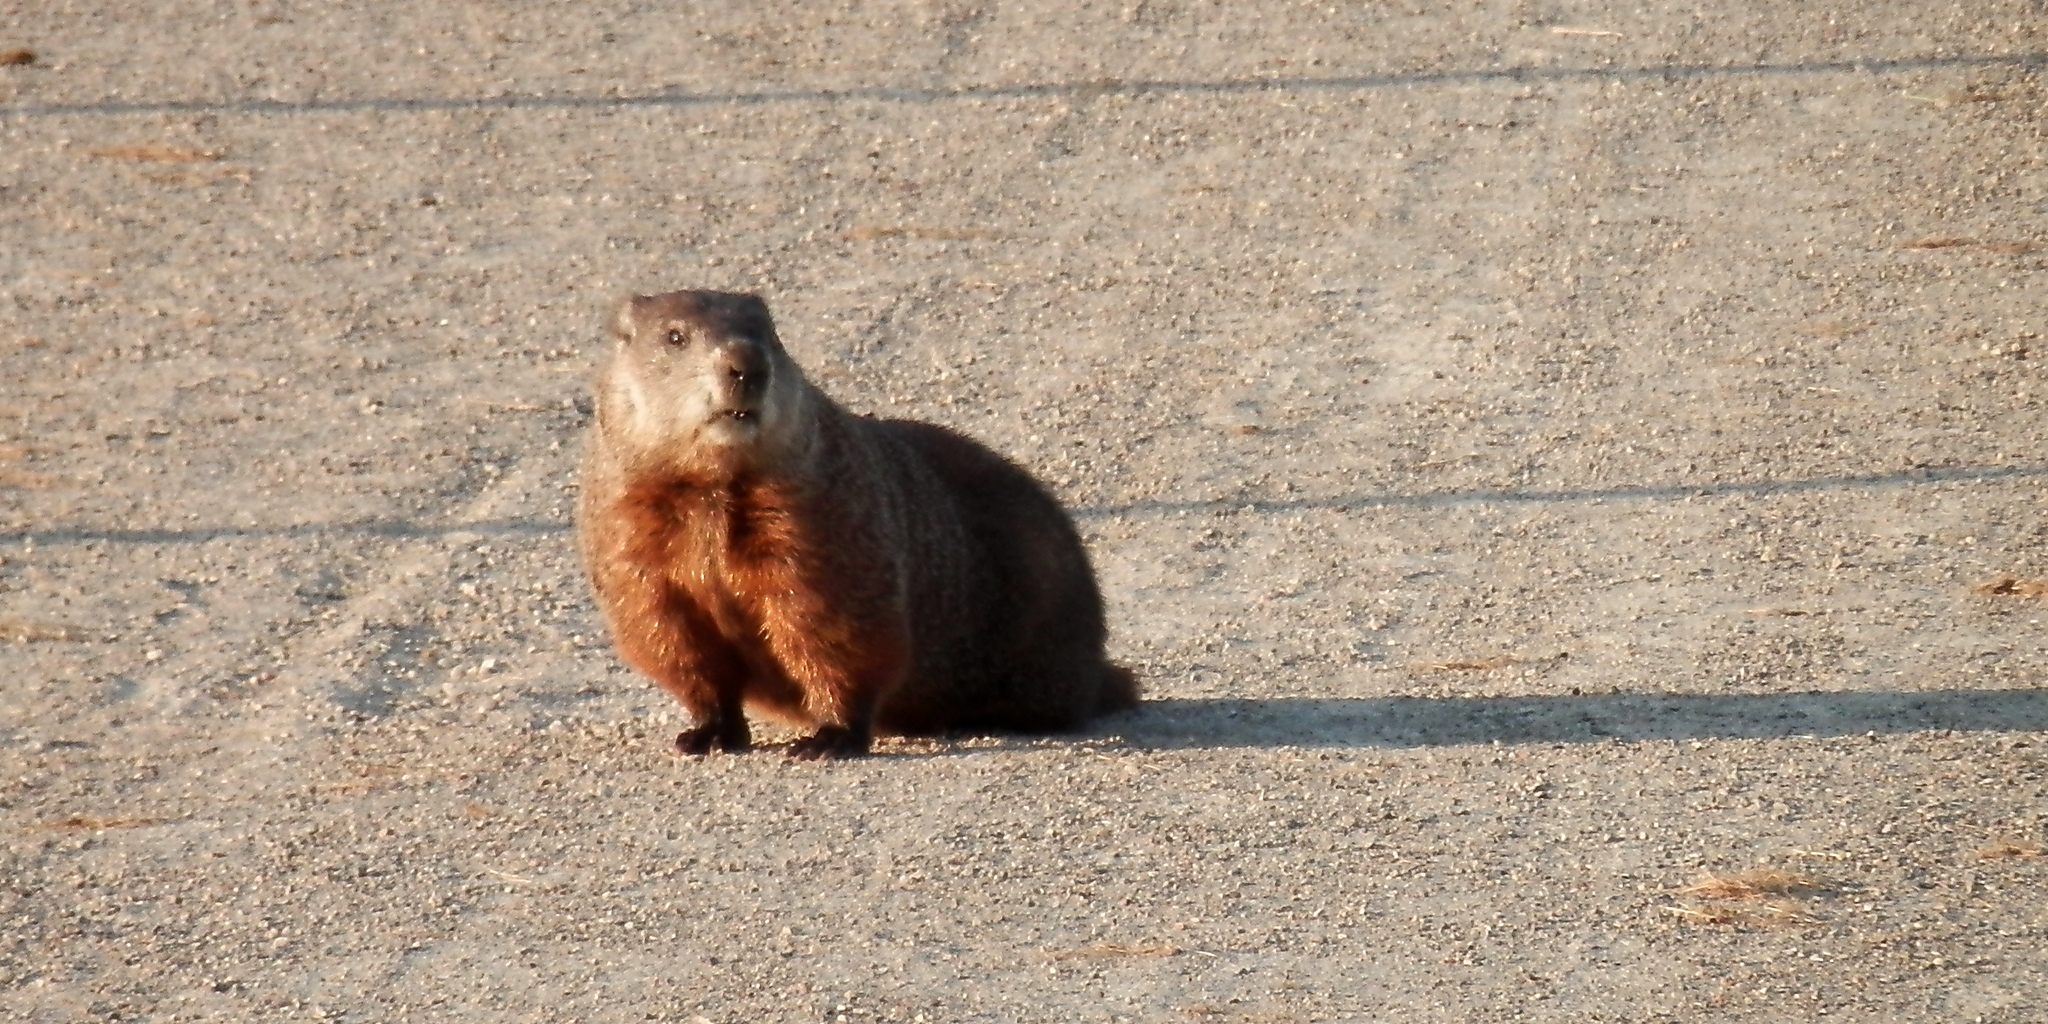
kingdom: Animalia
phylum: Chordata
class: Mammalia
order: Rodentia
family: Sciuridae
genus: Marmota
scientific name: Marmota monax
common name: Groundhog
